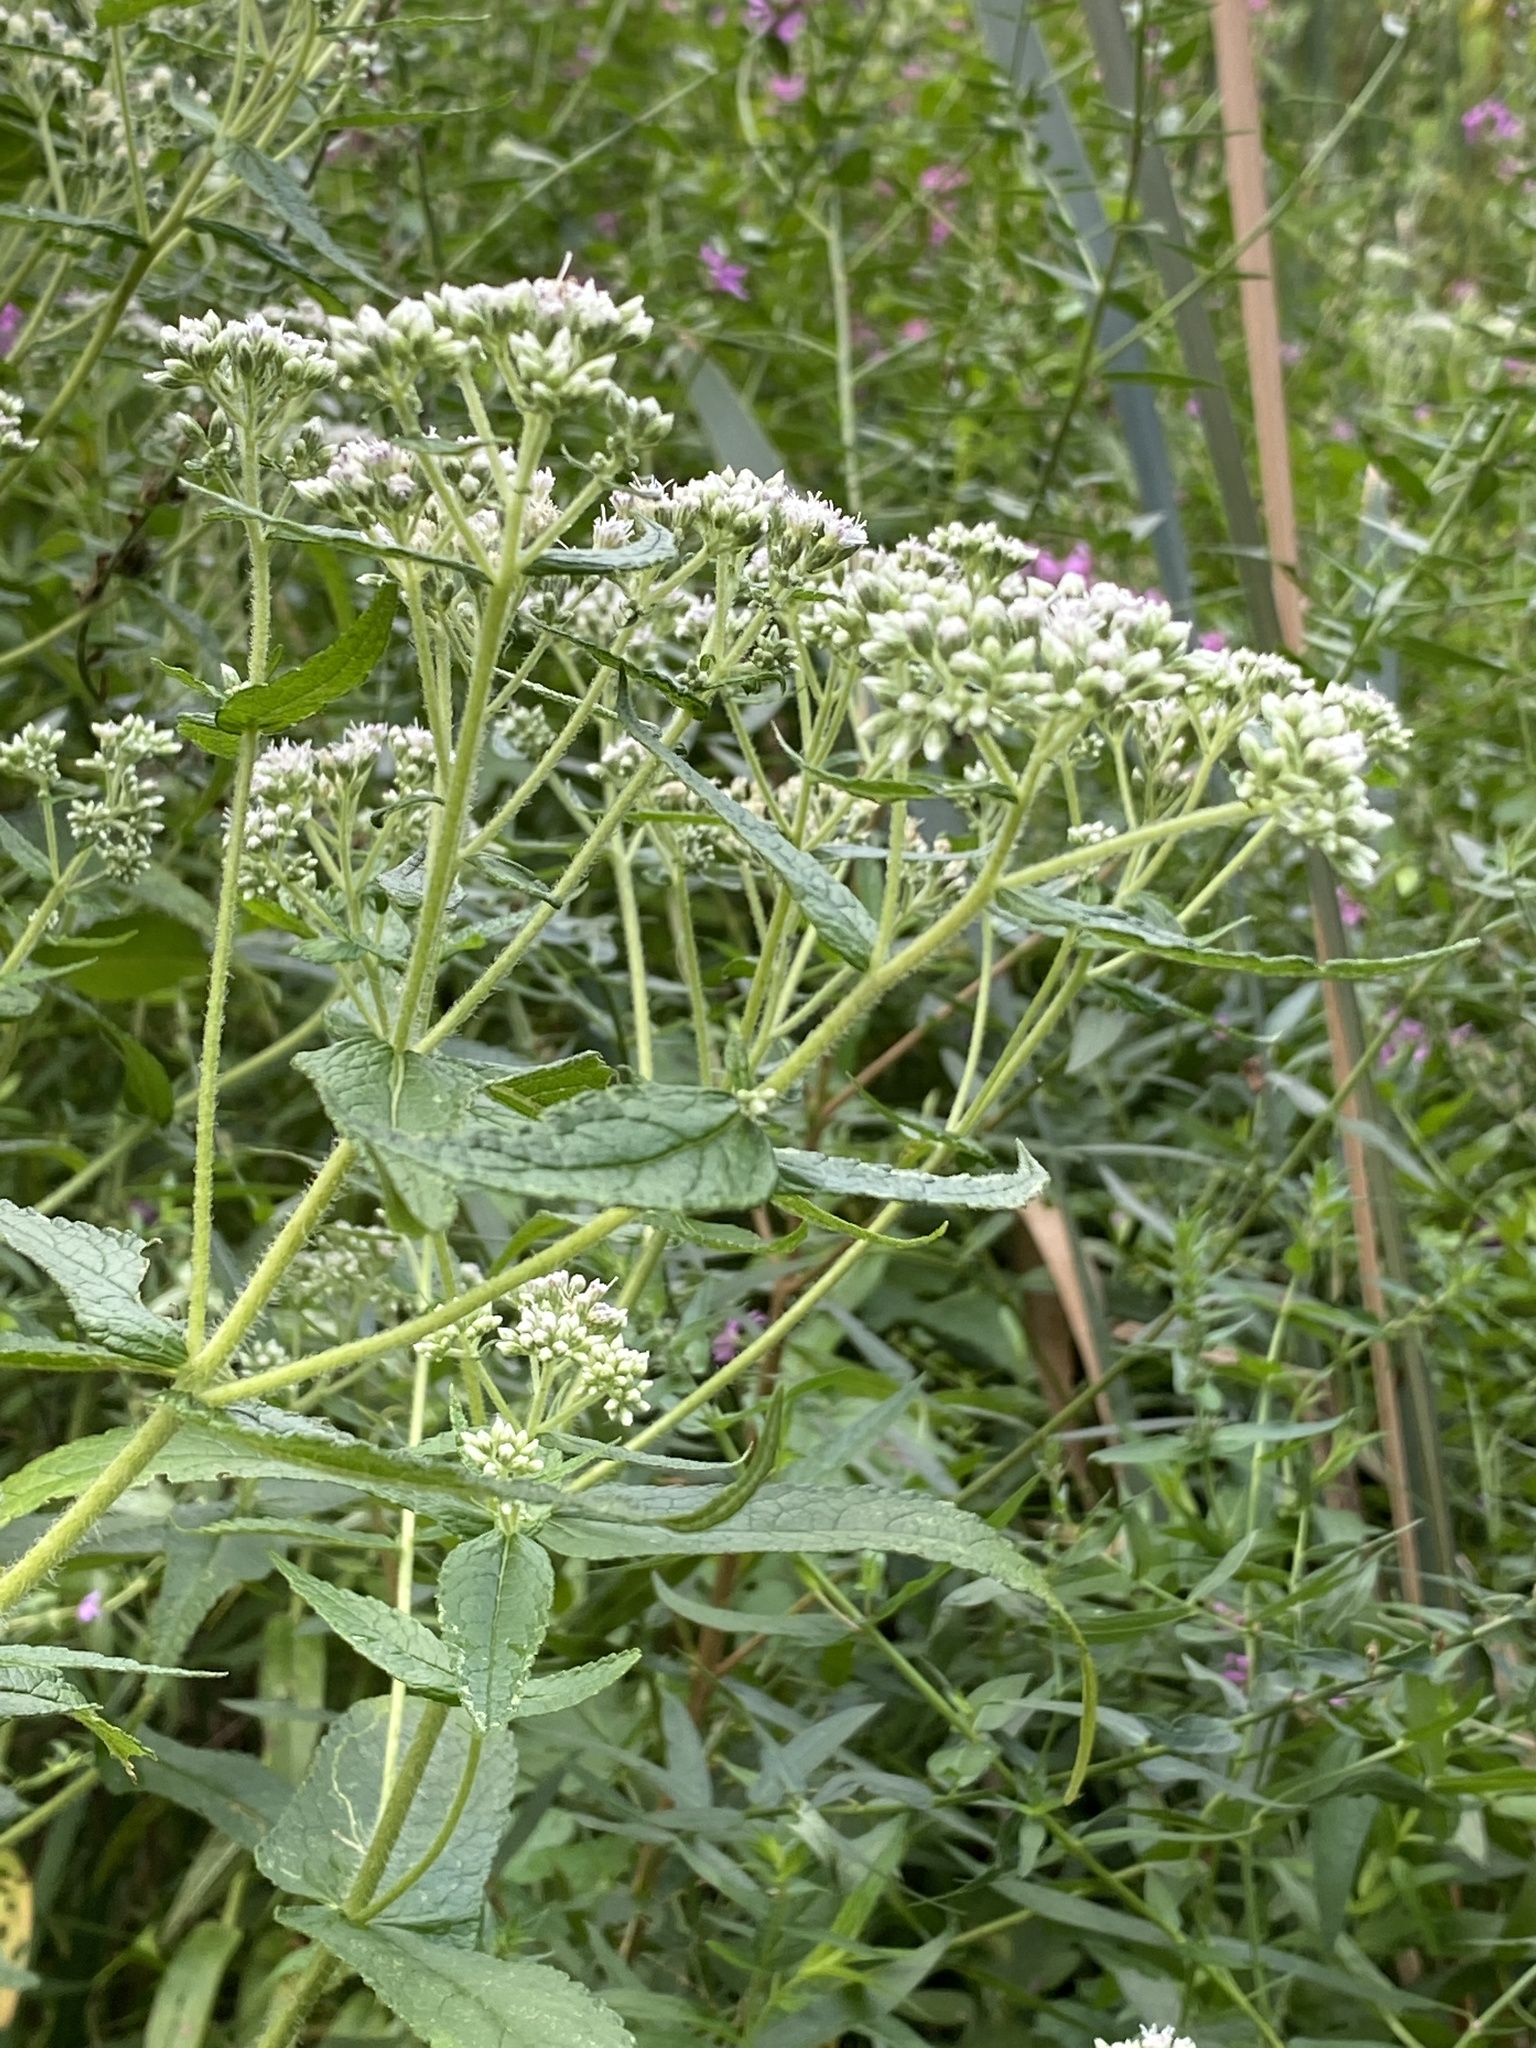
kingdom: Plantae
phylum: Tracheophyta
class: Magnoliopsida
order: Asterales
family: Asteraceae
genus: Eupatorium
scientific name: Eupatorium perfoliatum
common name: Boneset
